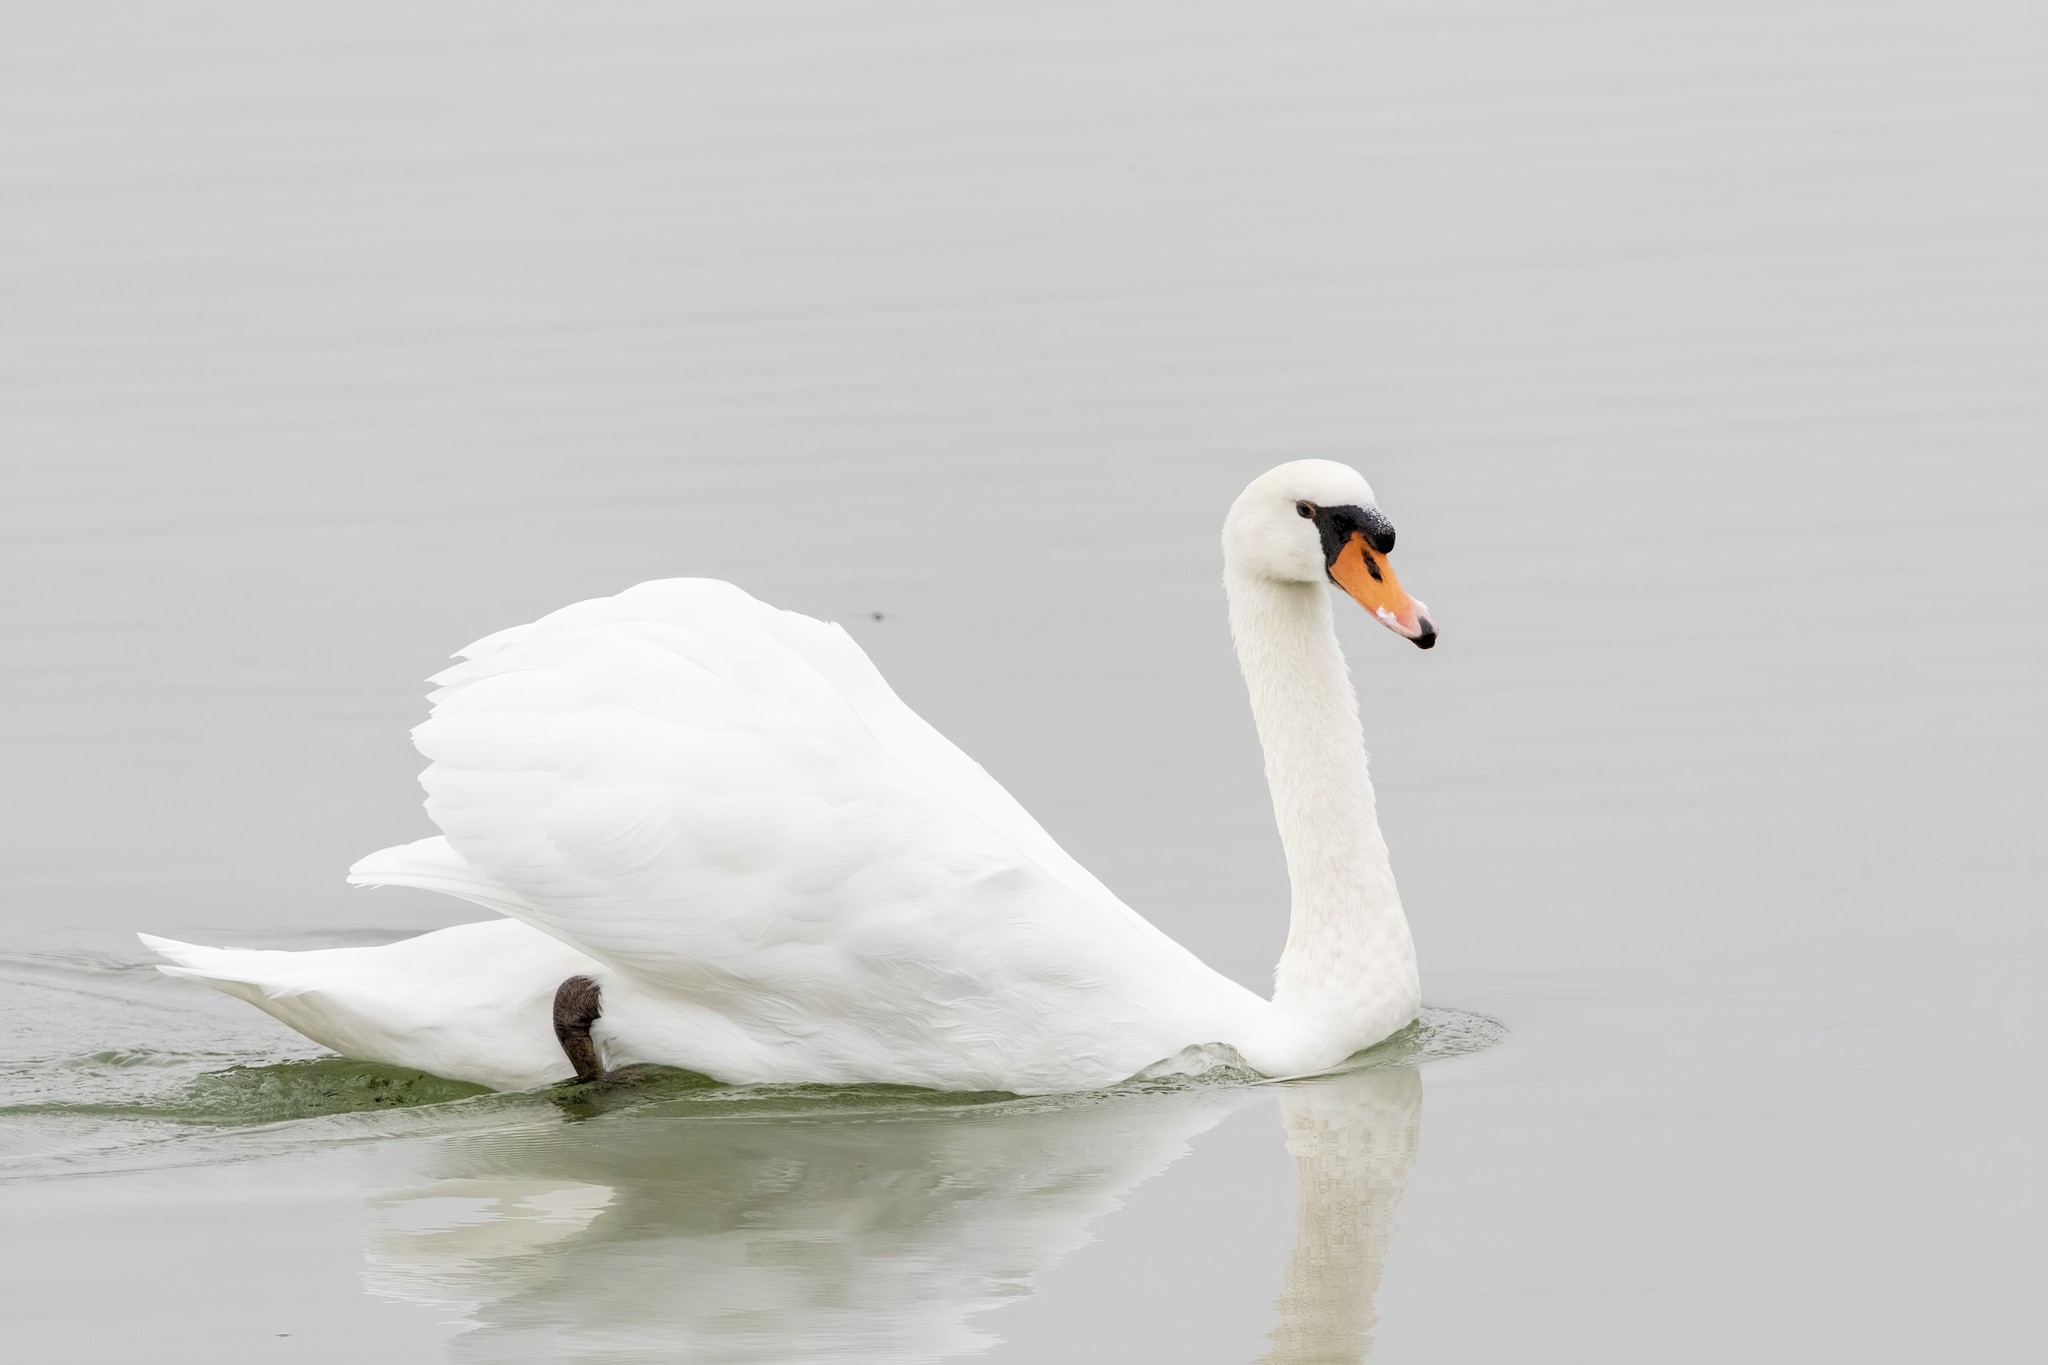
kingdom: Animalia
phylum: Chordata
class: Aves
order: Anseriformes
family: Anatidae
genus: Cygnus
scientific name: Cygnus olor
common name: Mute swan
